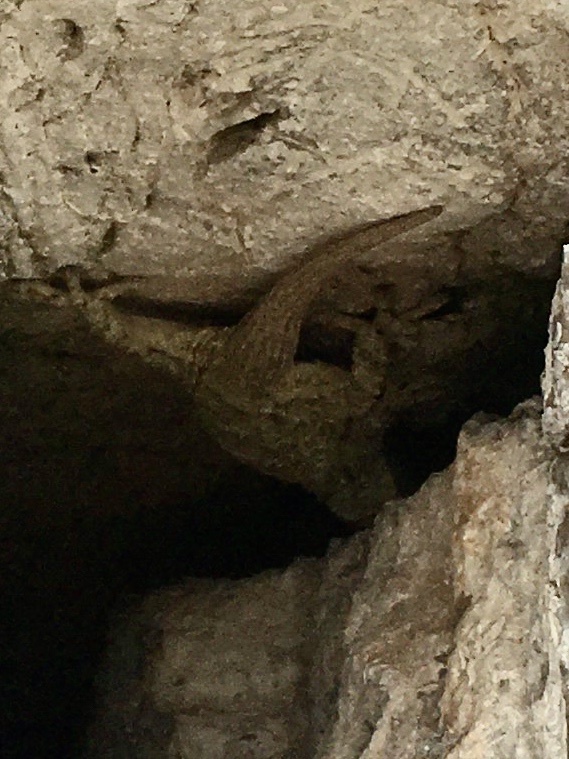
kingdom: Animalia
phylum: Chordata
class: Squamata
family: Phyllodactylidae
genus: Tarentola
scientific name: Tarentola mauritanica
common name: Moorish gecko
